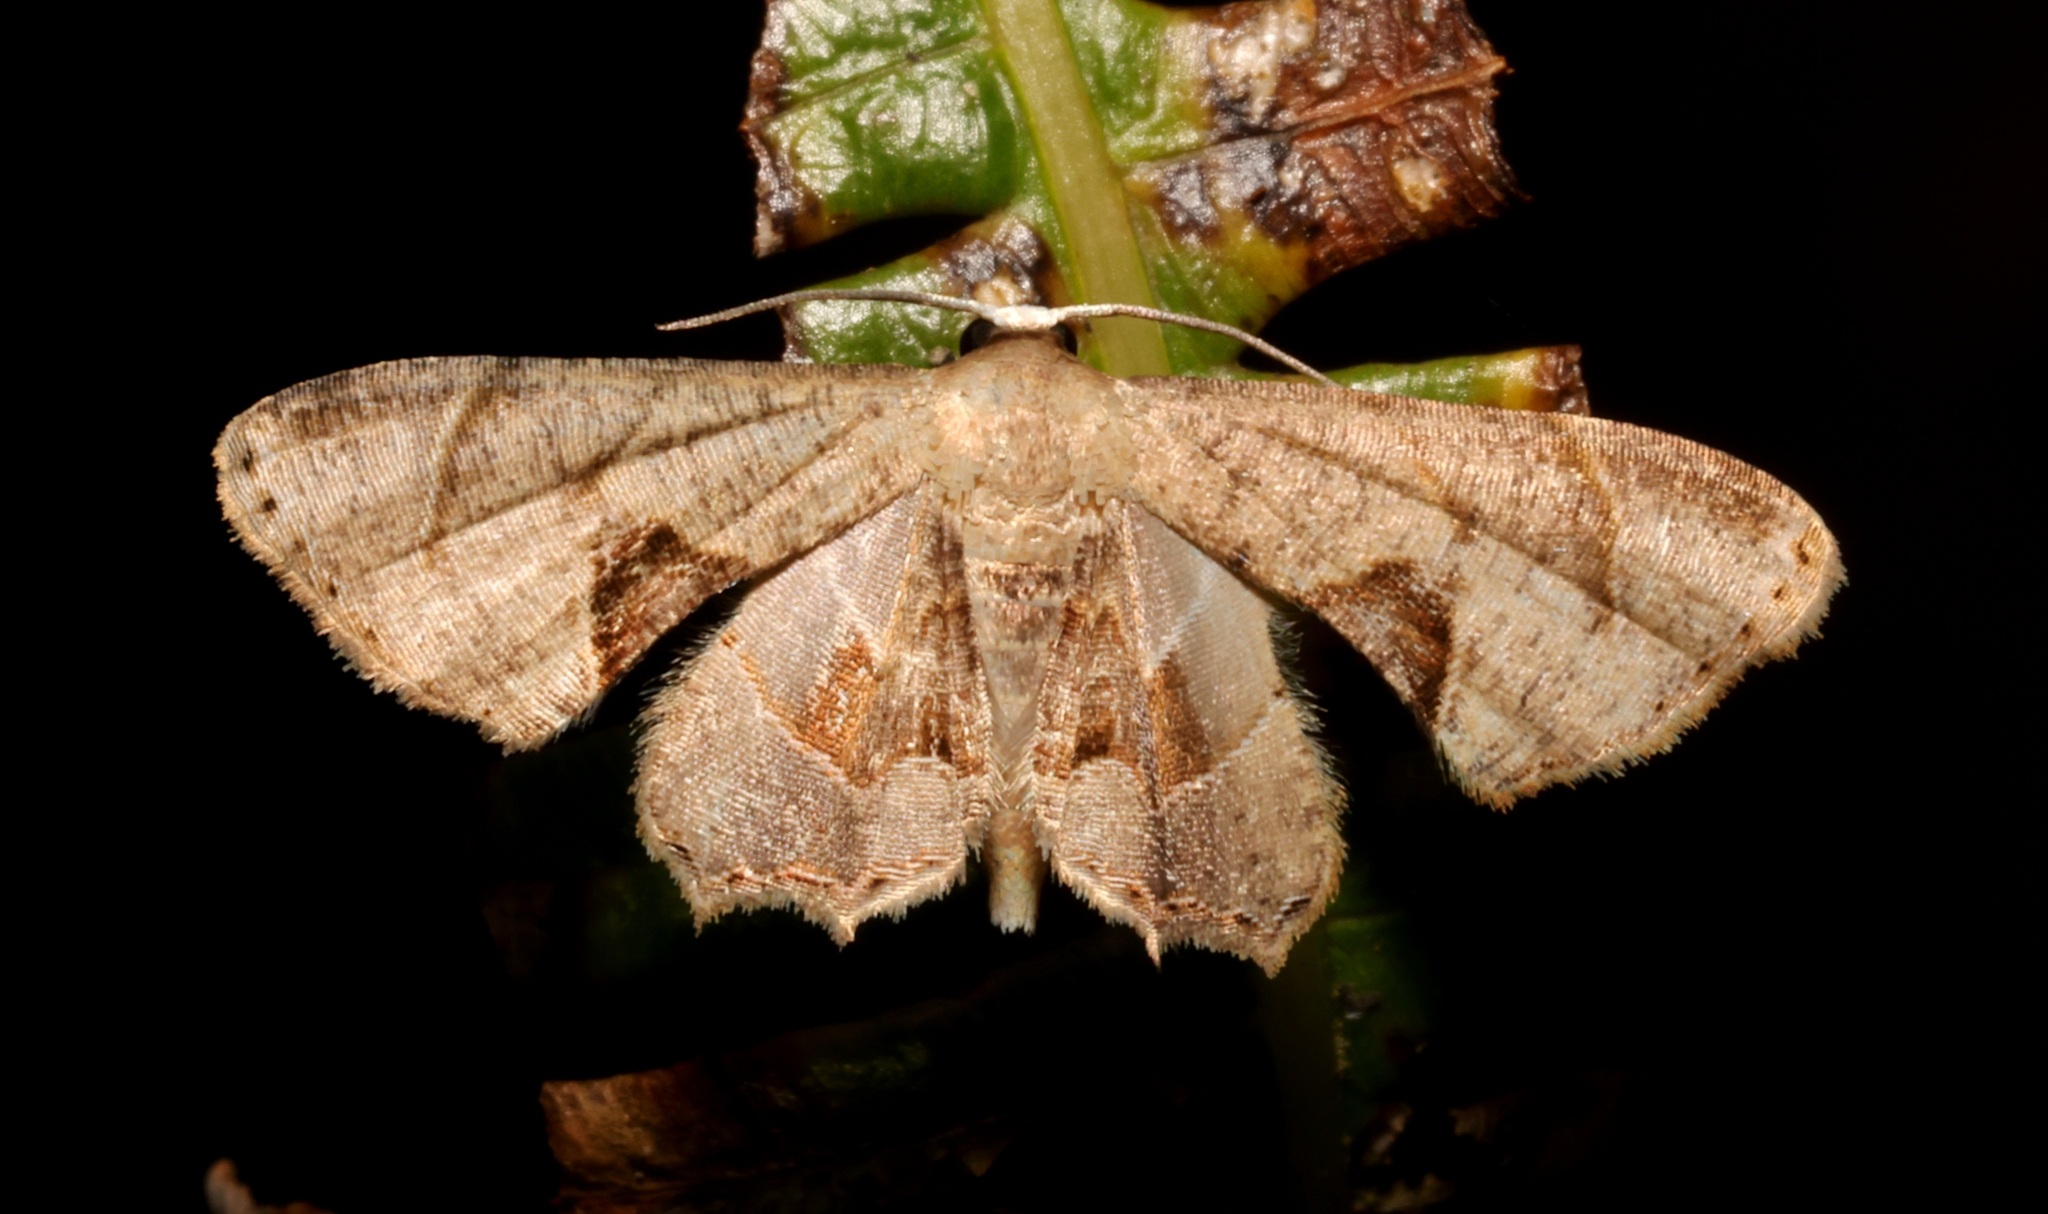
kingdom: Animalia
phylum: Arthropoda
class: Insecta
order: Lepidoptera
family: Uraniidae
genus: Phazaca
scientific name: Phazaca leucocera
